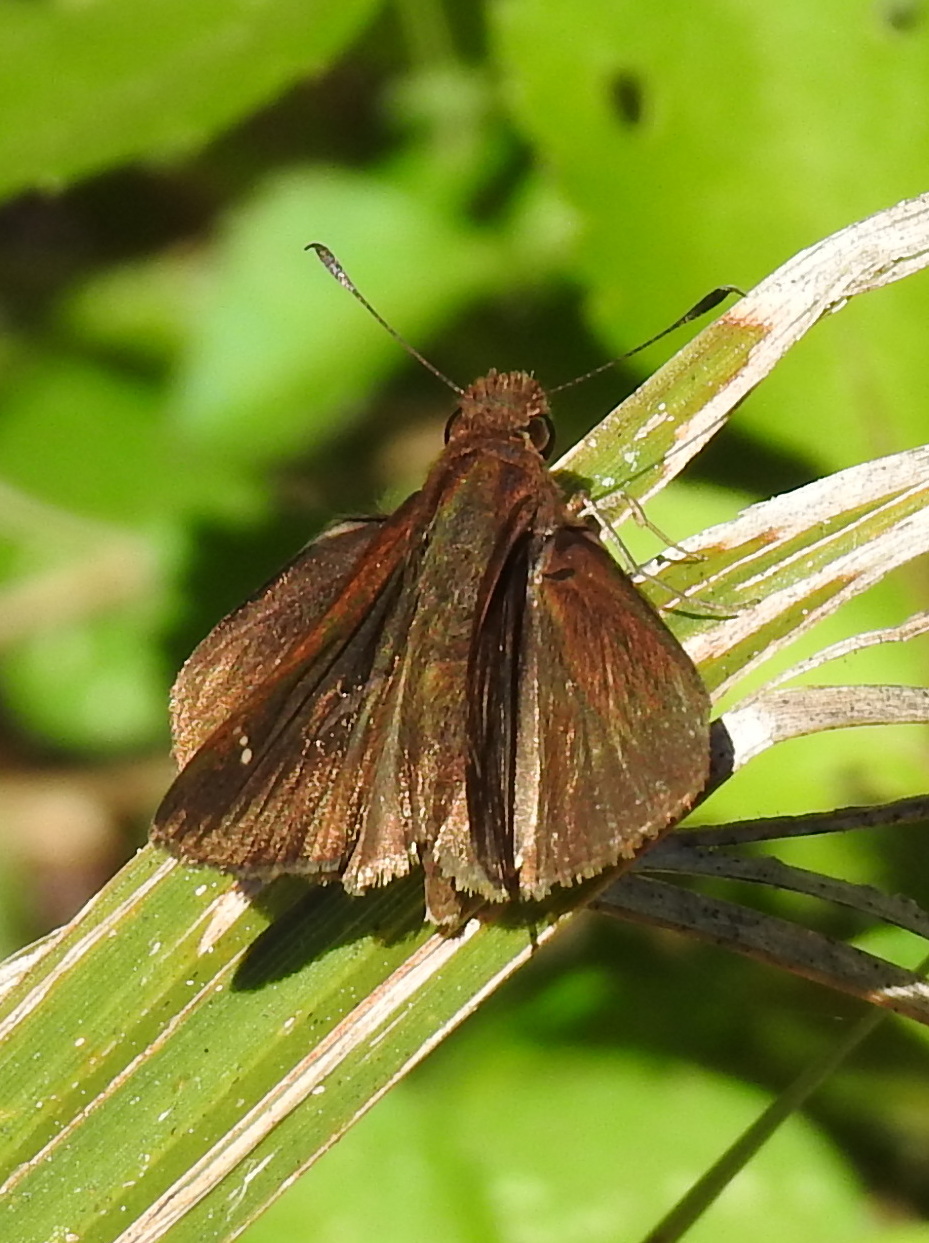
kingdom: Animalia
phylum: Arthropoda
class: Insecta
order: Lepidoptera
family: Hesperiidae
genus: Lerema
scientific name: Lerema accius
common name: Clouded skipper
